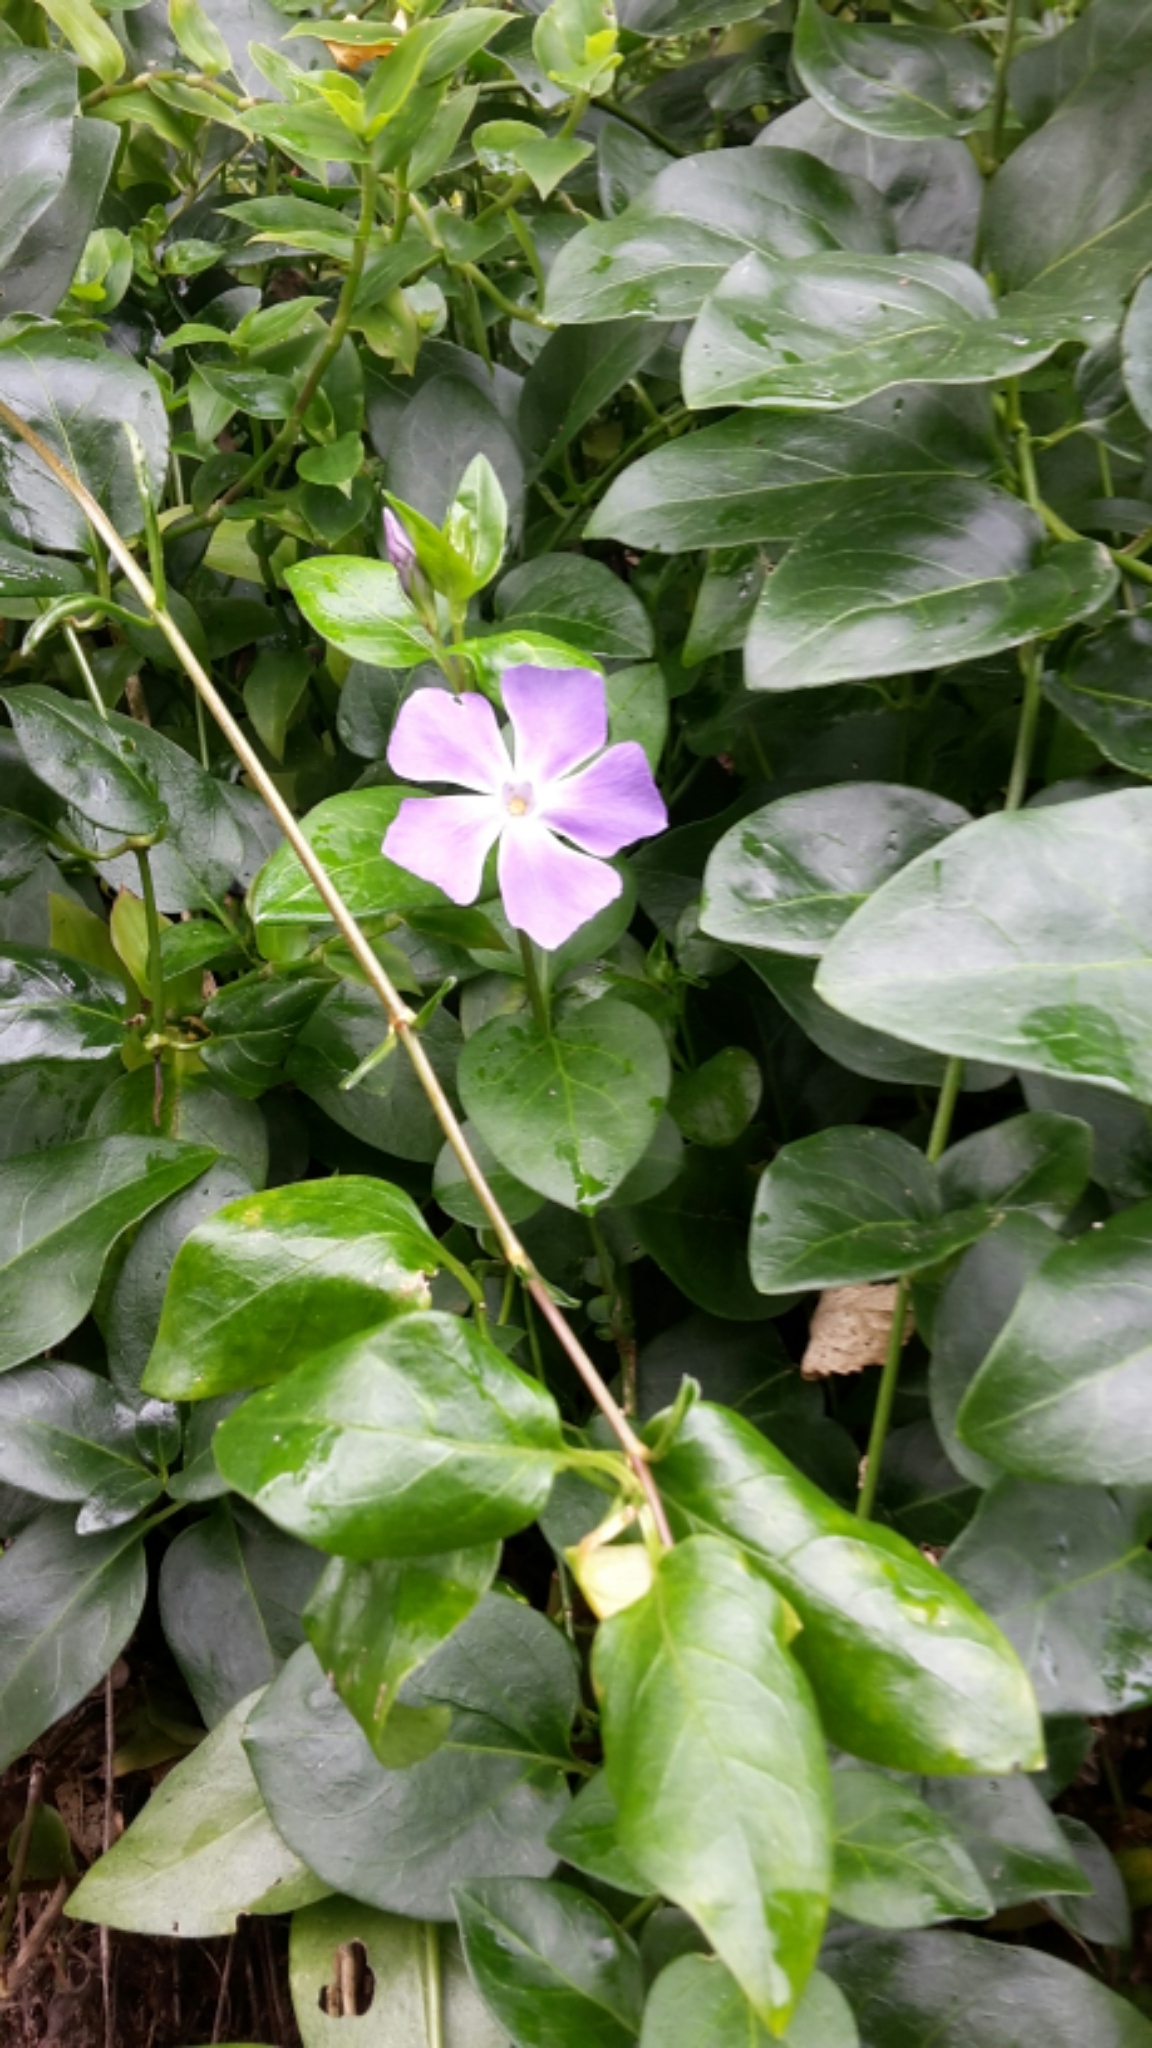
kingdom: Plantae
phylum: Tracheophyta
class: Magnoliopsida
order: Gentianales
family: Apocynaceae
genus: Vinca
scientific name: Vinca major
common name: Greater periwinkle
